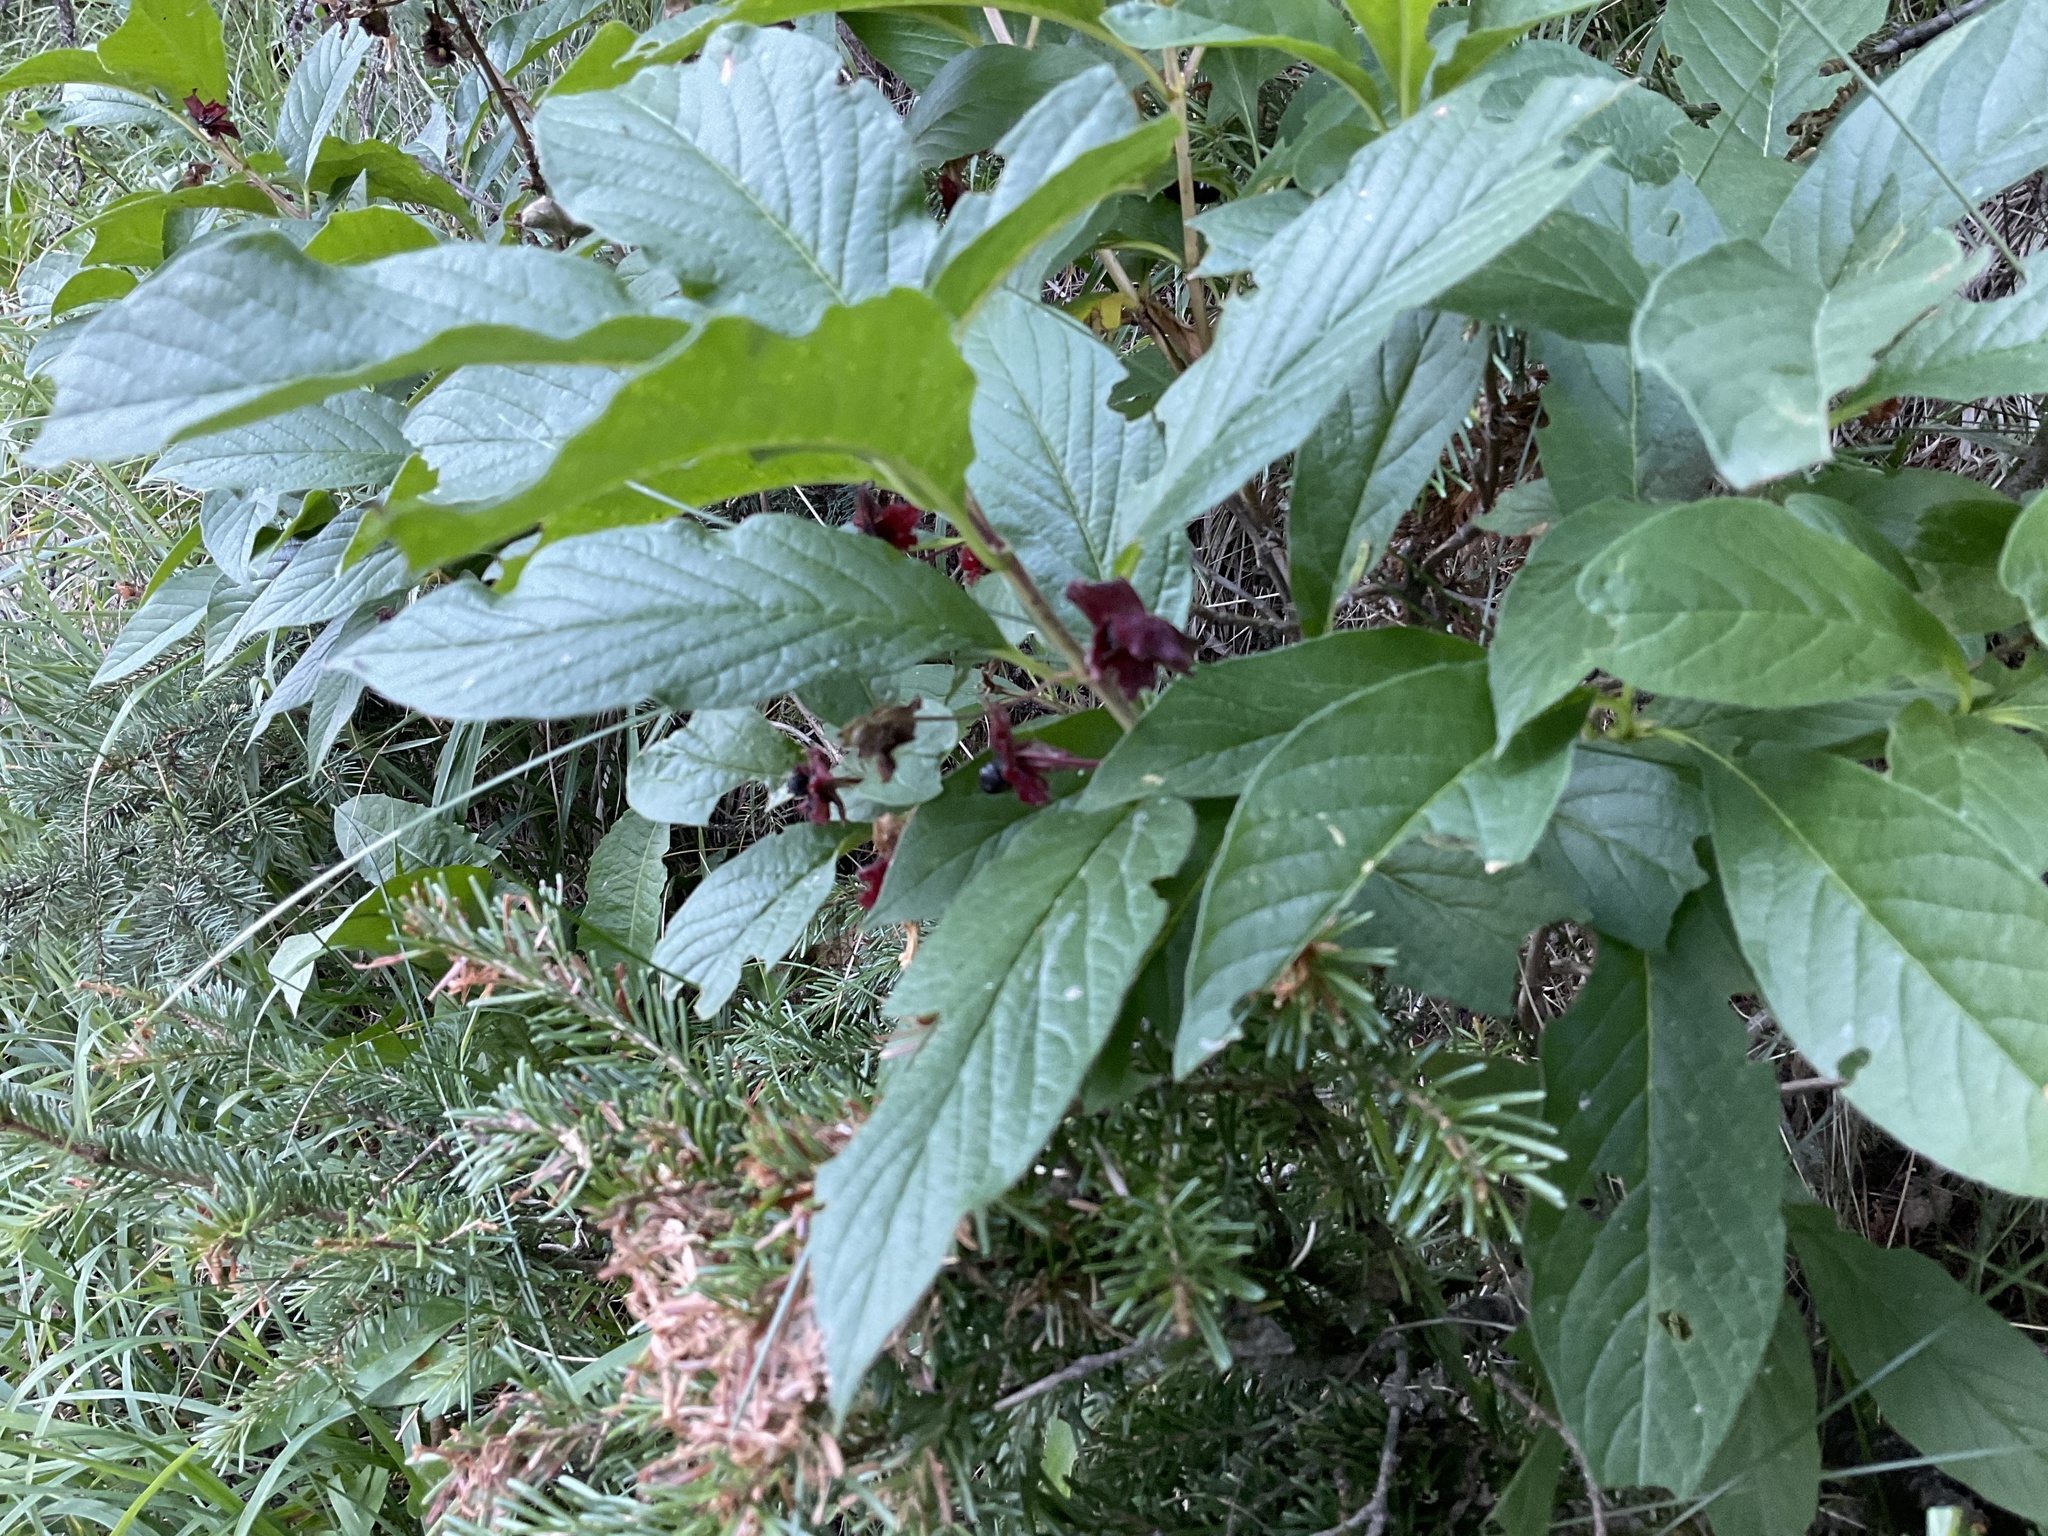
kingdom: Plantae
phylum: Tracheophyta
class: Magnoliopsida
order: Dipsacales
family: Caprifoliaceae
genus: Lonicera
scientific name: Lonicera involucrata
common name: Californian honeysuckle
